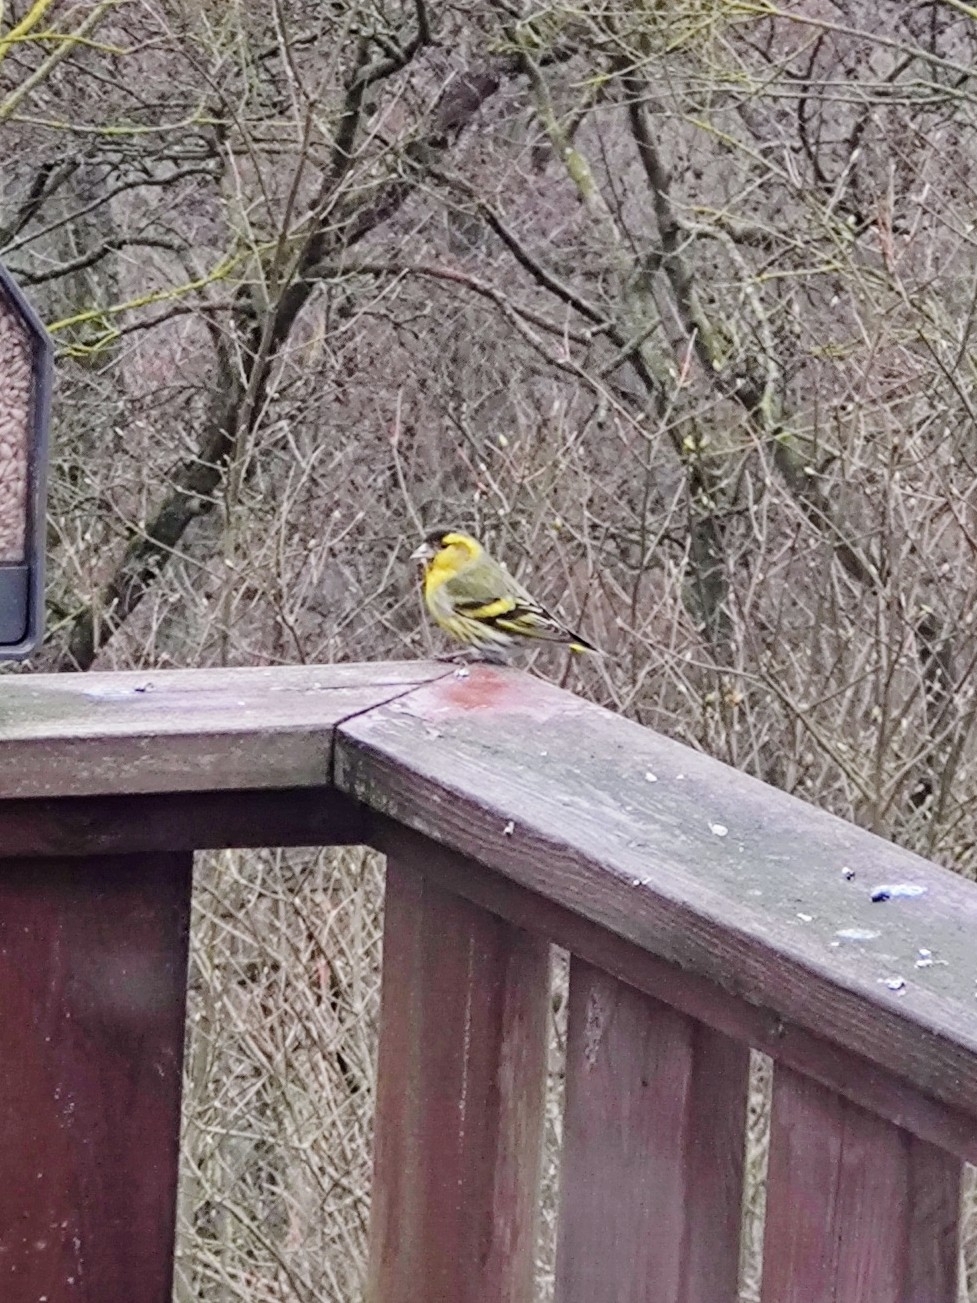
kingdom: Animalia
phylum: Chordata
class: Aves
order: Passeriformes
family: Fringillidae
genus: Spinus
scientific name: Spinus spinus
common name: Eurasian siskin
